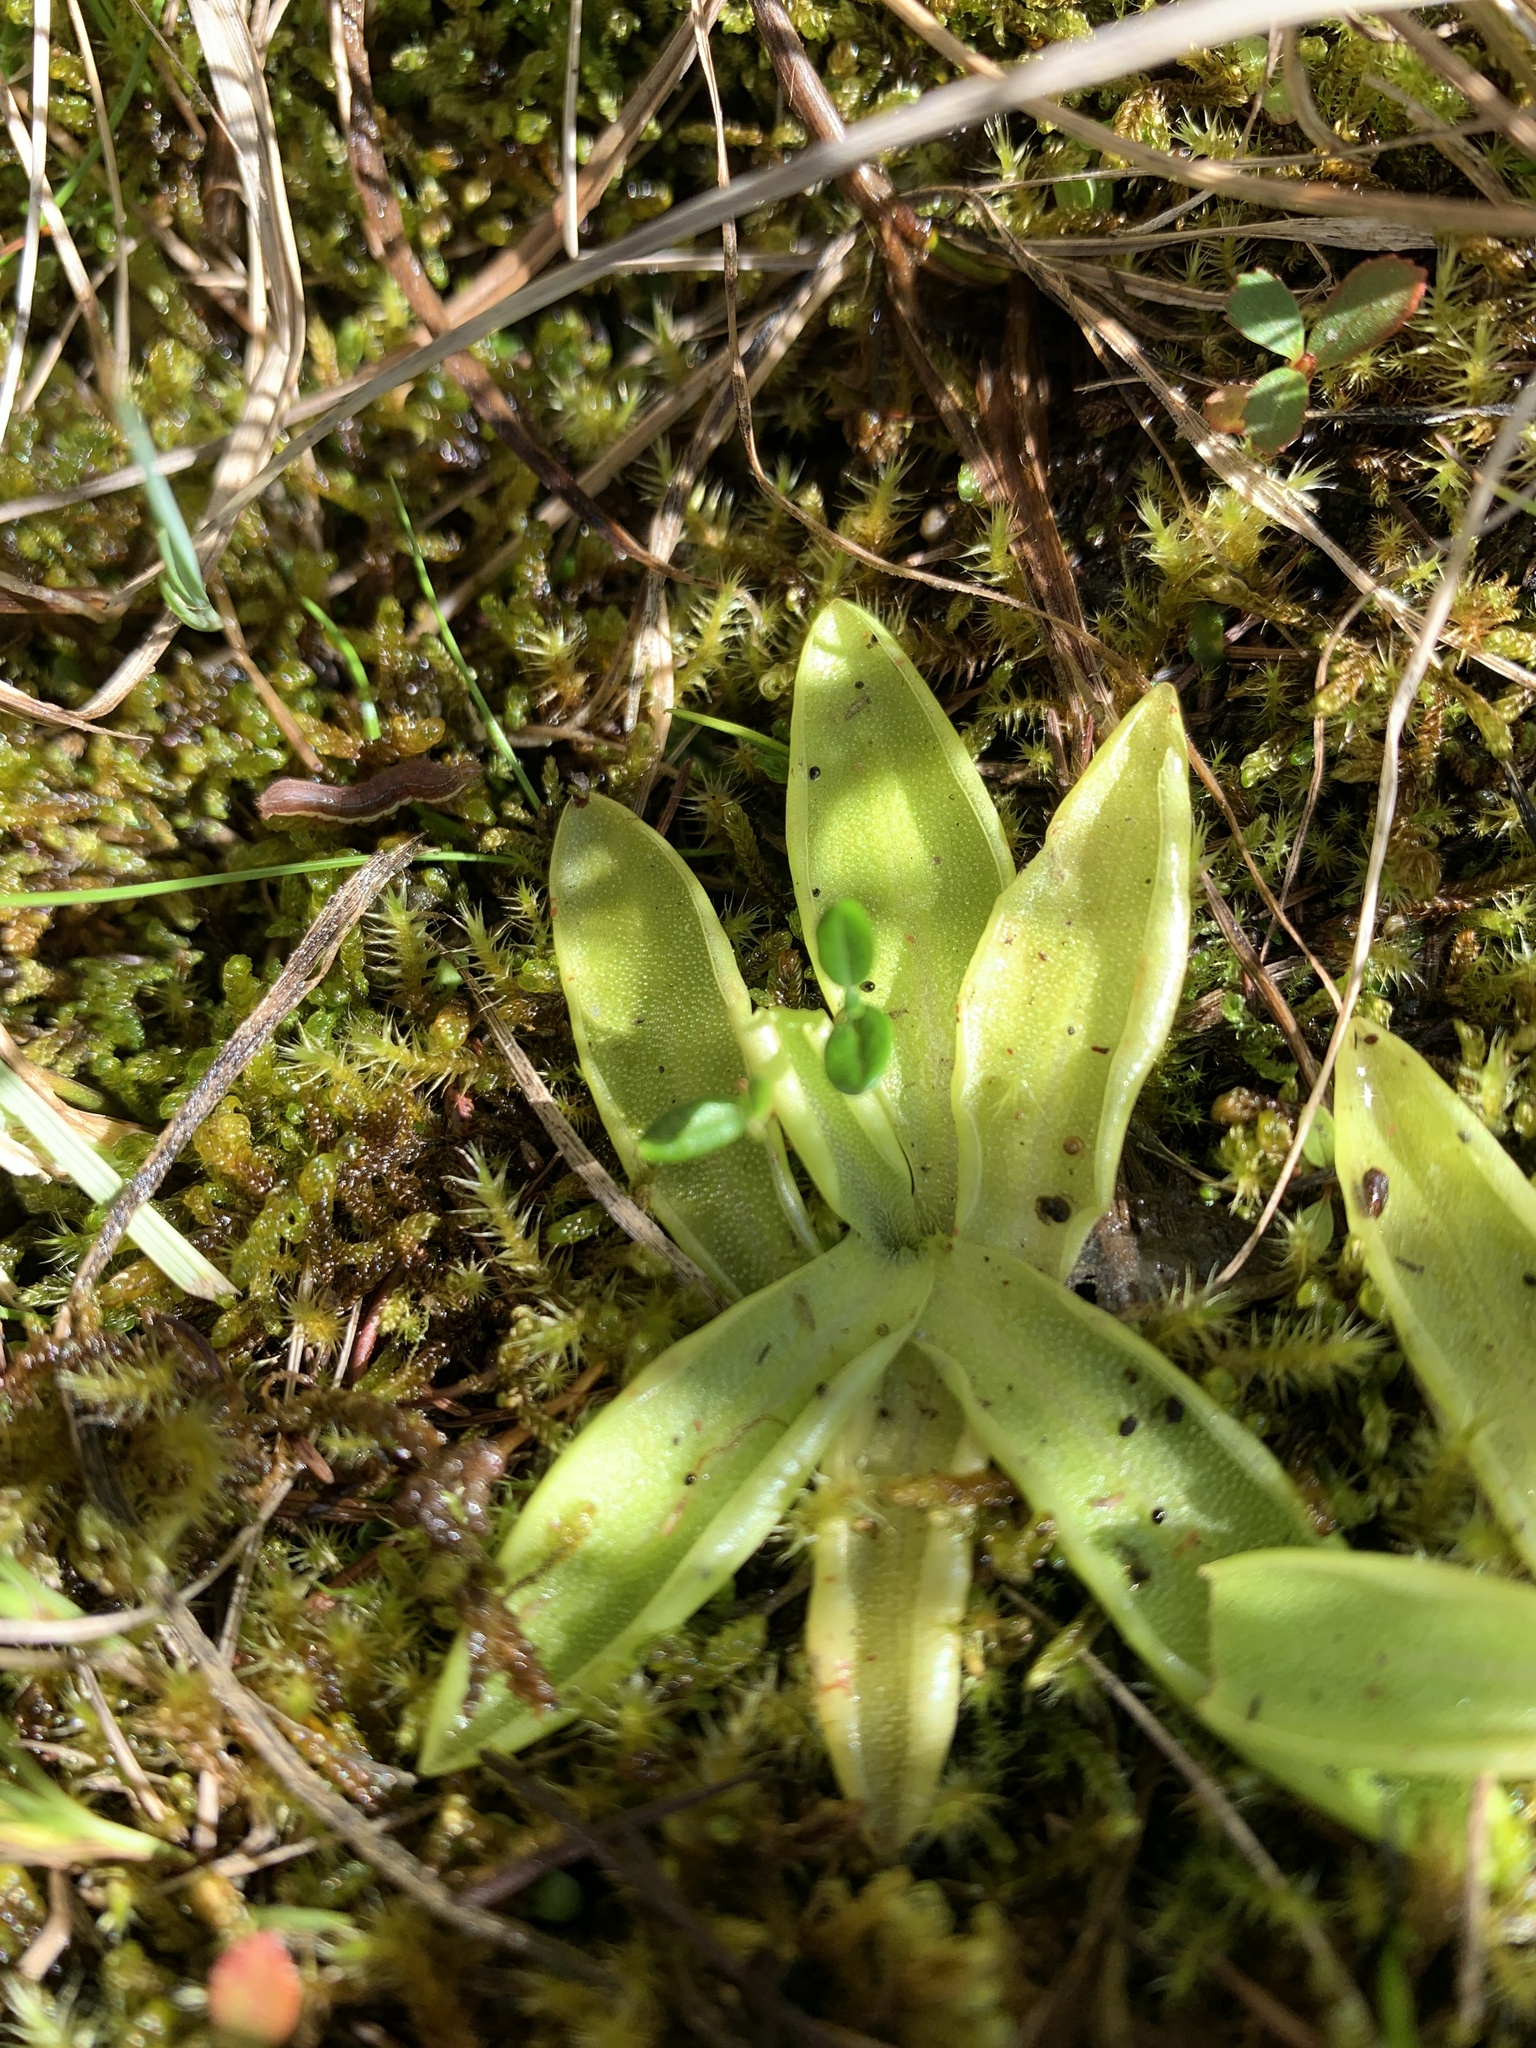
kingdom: Plantae
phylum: Tracheophyta
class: Magnoliopsida
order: Lamiales
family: Lentibulariaceae
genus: Pinguicula
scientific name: Pinguicula vulgaris
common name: Common butterwort
